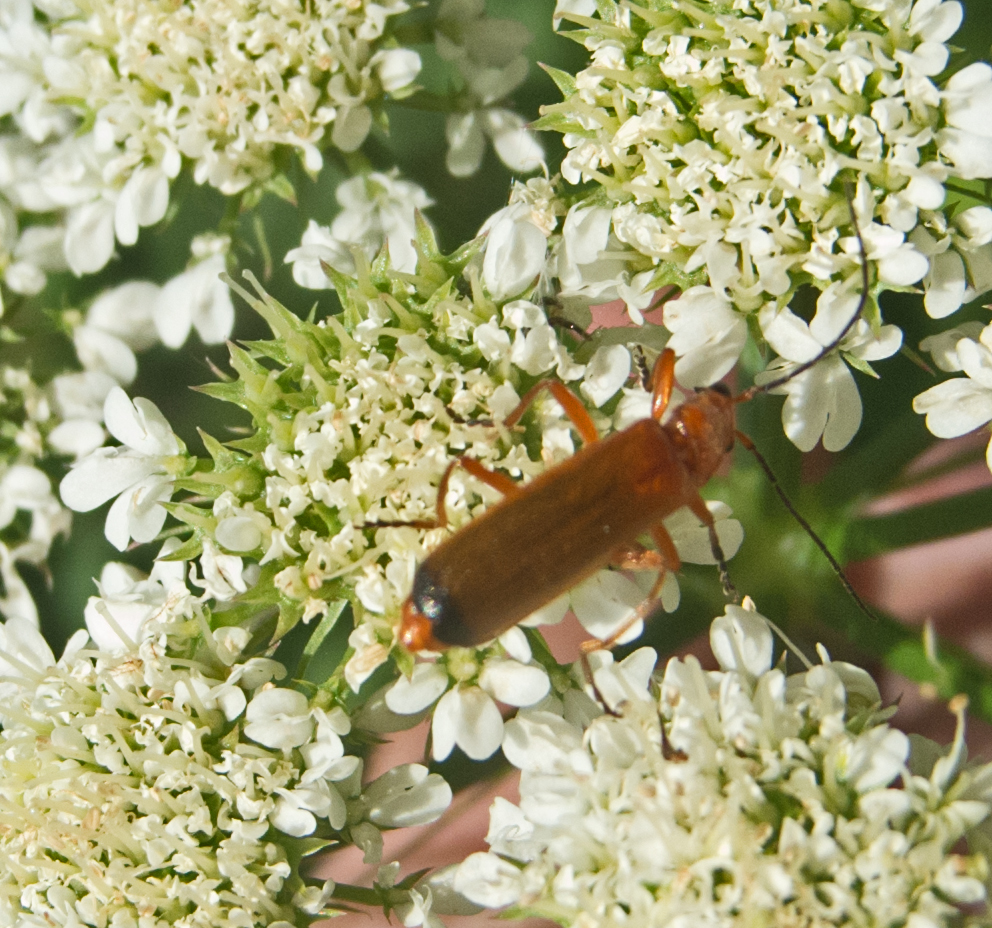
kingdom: Animalia
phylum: Arthropoda
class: Insecta
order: Coleoptera
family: Cantharidae
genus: Rhagonycha
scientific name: Rhagonycha fulva
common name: Common red soldier beetle
